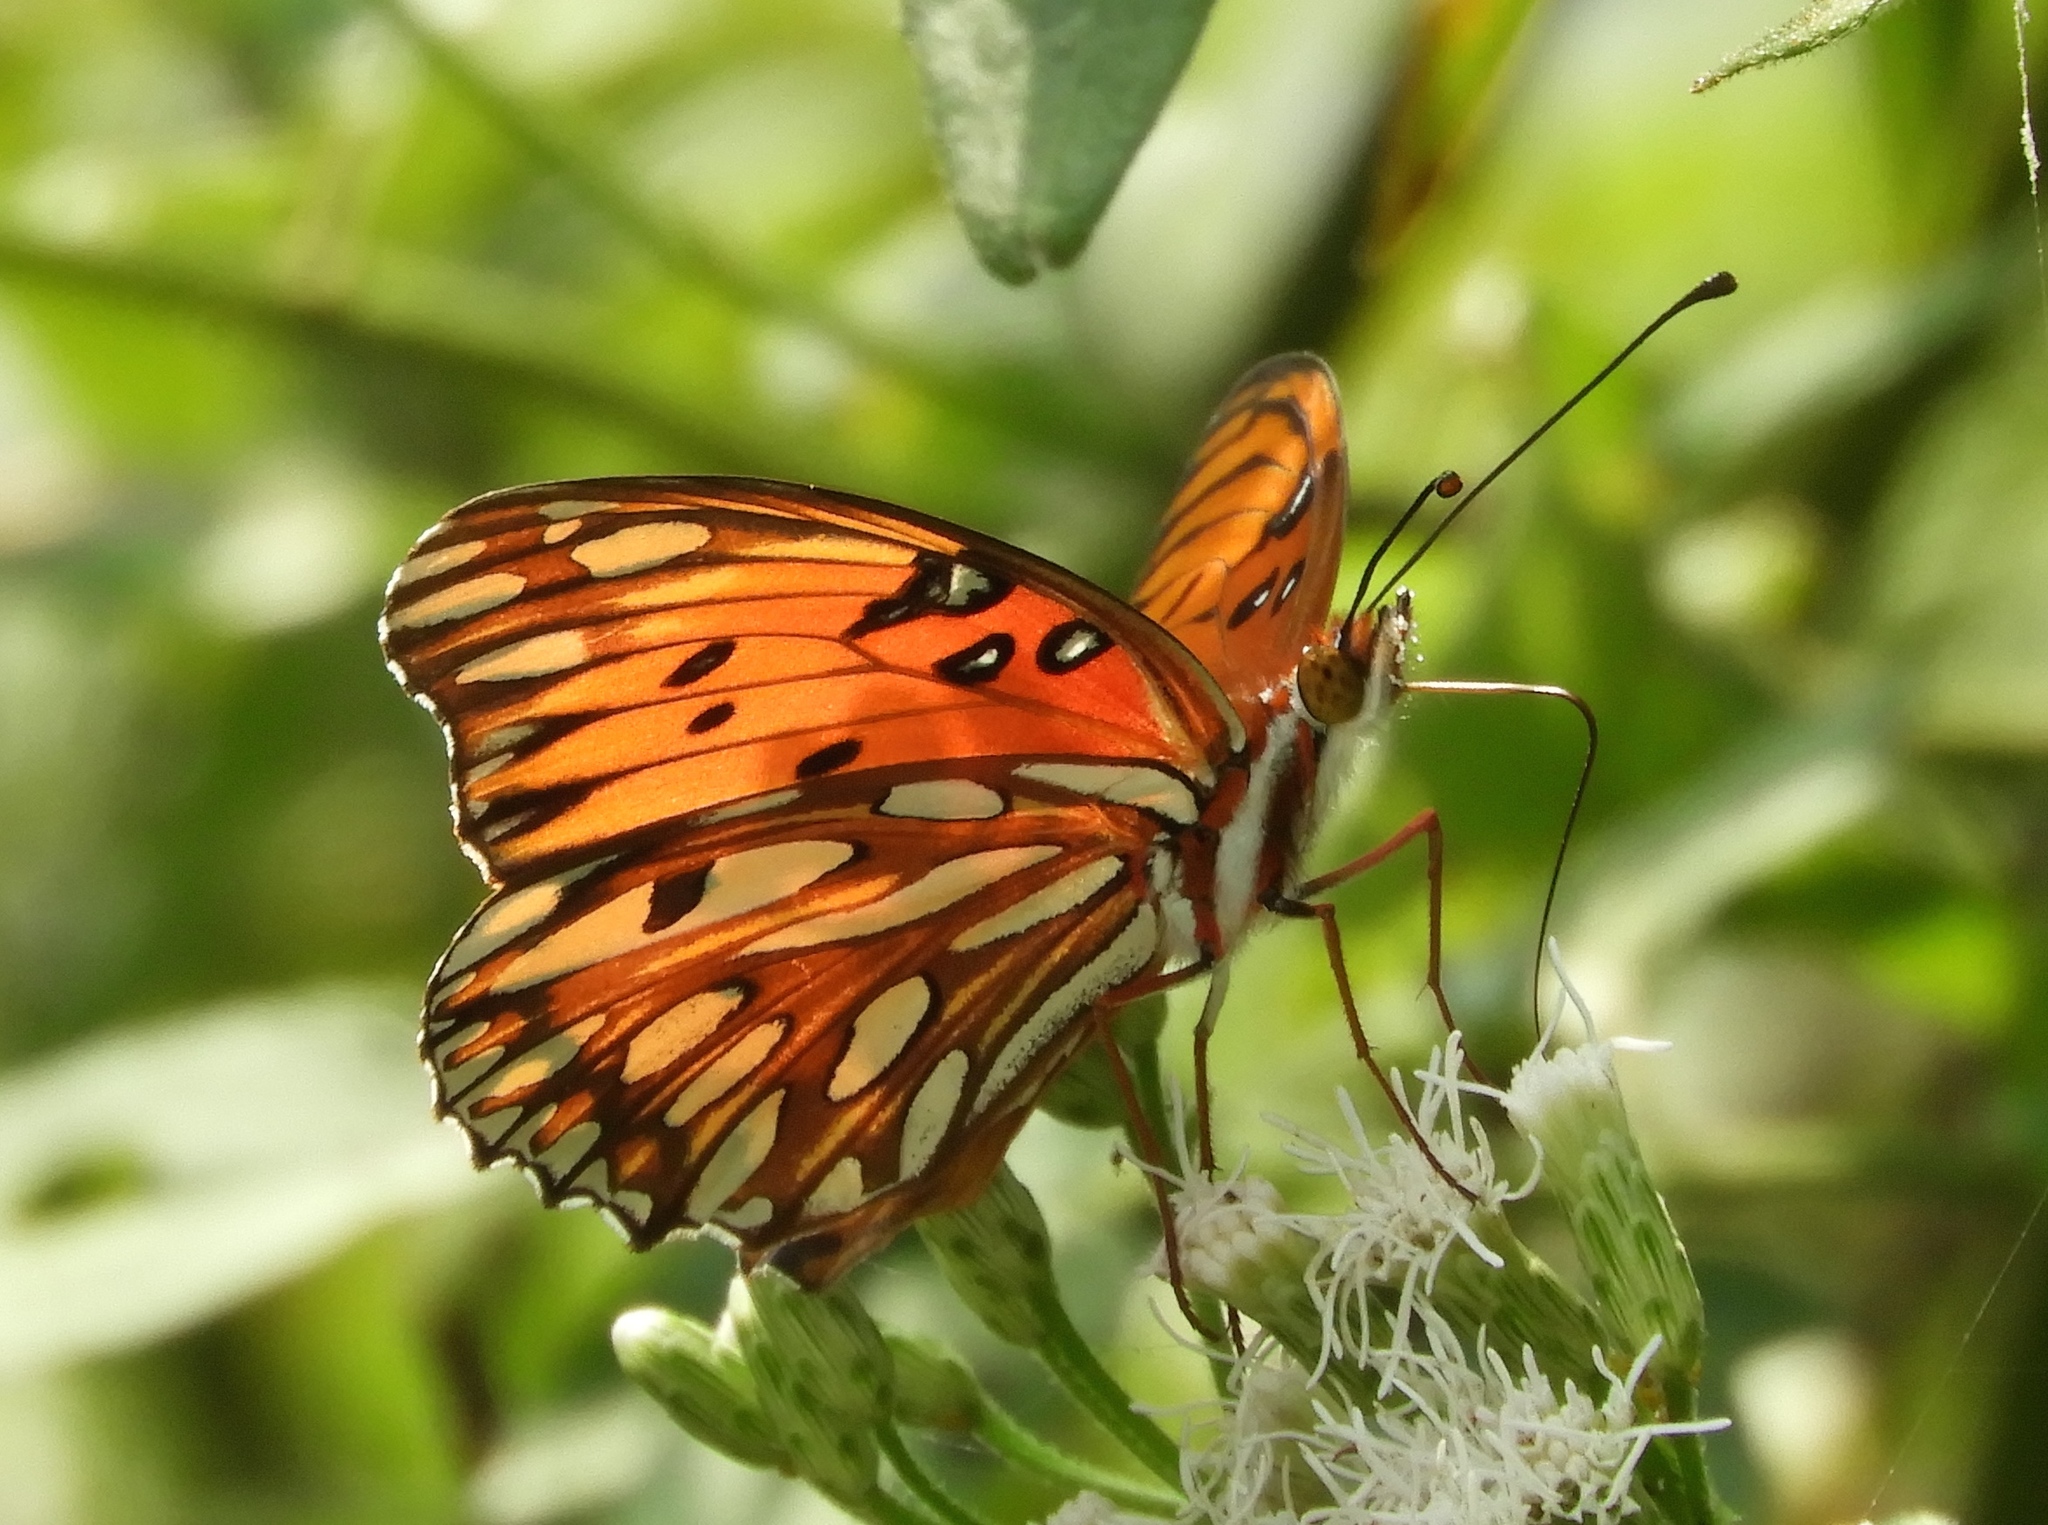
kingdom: Animalia
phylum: Arthropoda
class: Insecta
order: Lepidoptera
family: Nymphalidae
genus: Dione
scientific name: Dione vanillae
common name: Gulf fritillary
